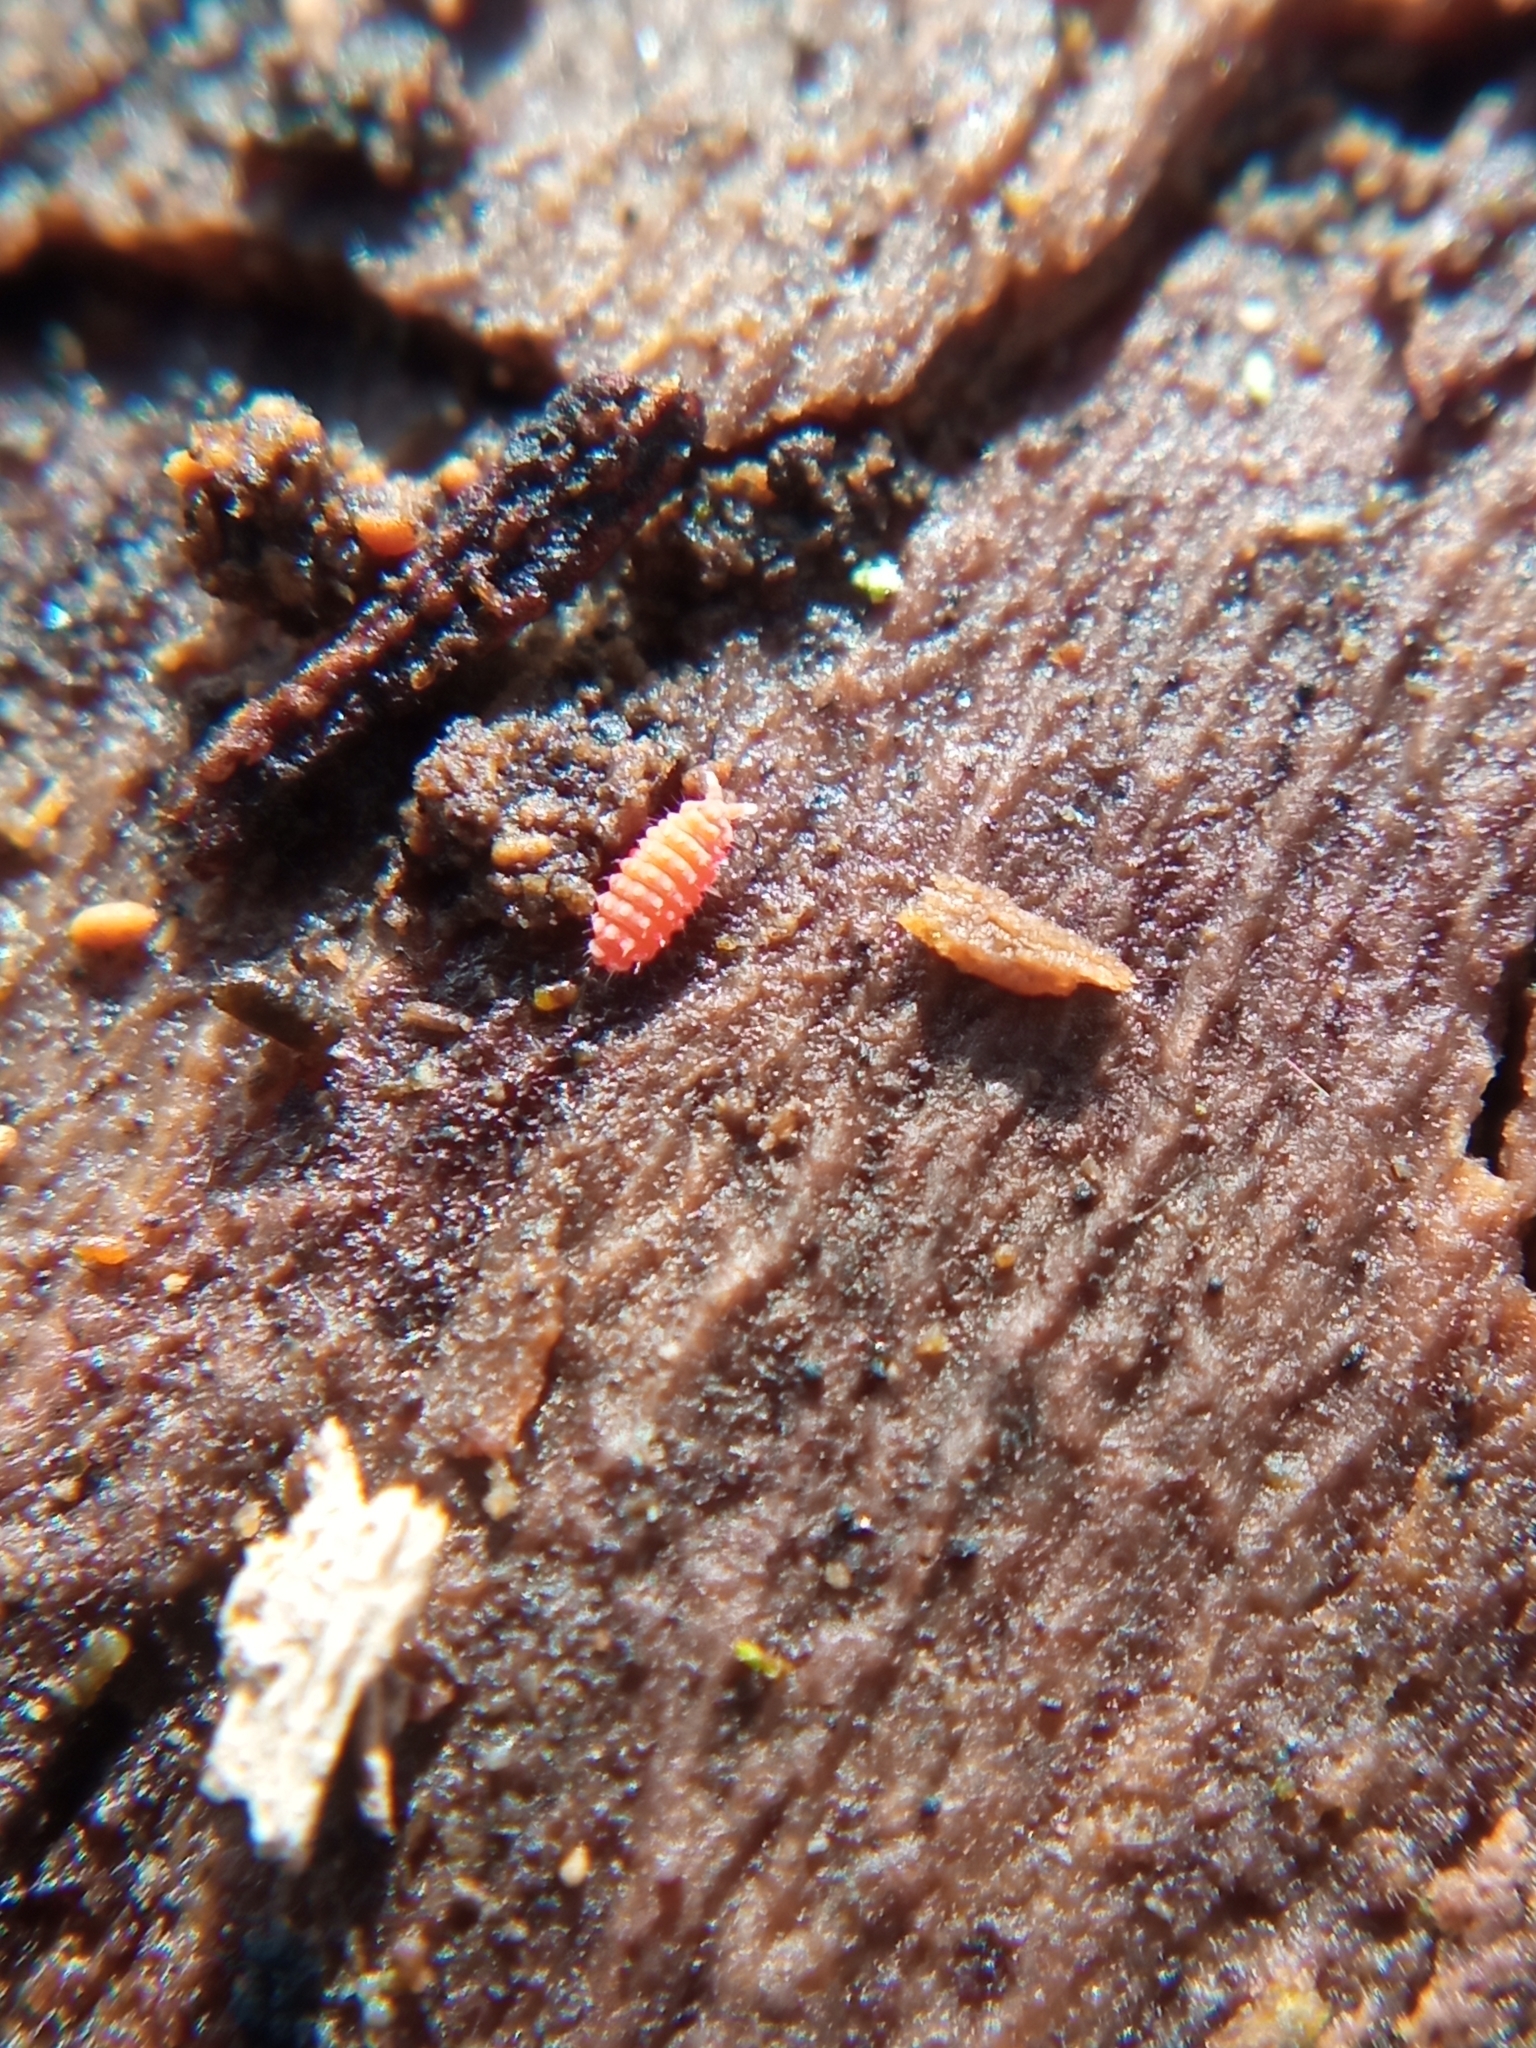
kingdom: Animalia
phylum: Arthropoda
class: Collembola
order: Poduromorpha
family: Neanuridae
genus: Bilobella
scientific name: Bilobella braunerae
